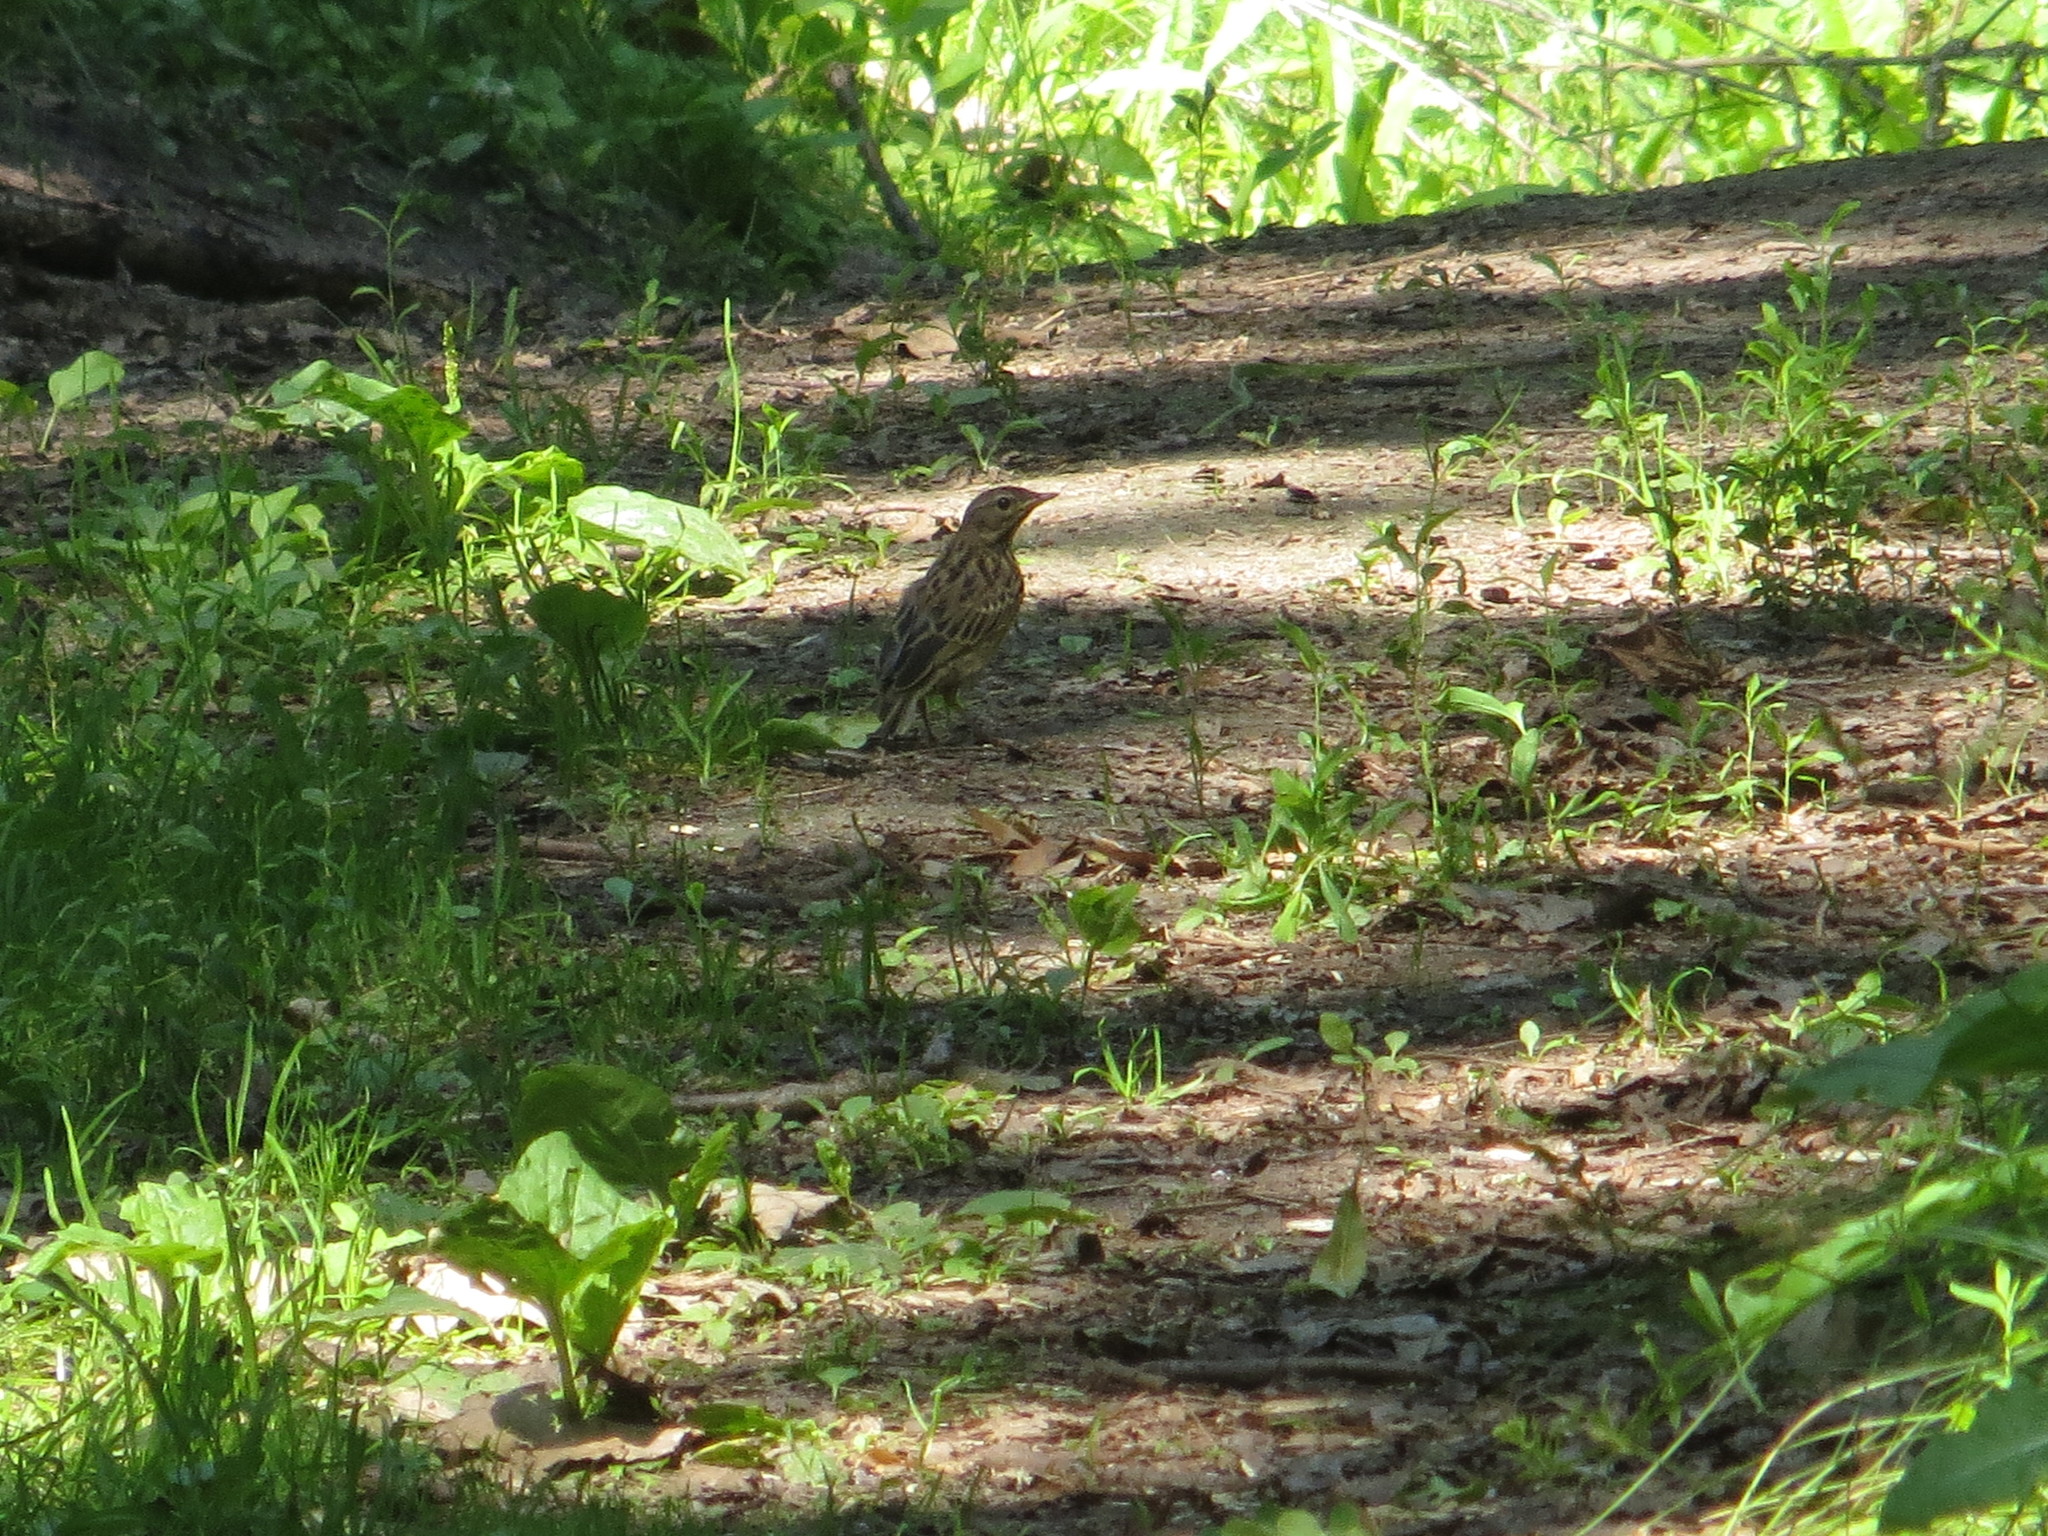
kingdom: Animalia
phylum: Chordata
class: Aves
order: Passeriformes
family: Motacillidae
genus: Anthus
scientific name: Anthus trivialis
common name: Tree pipit
